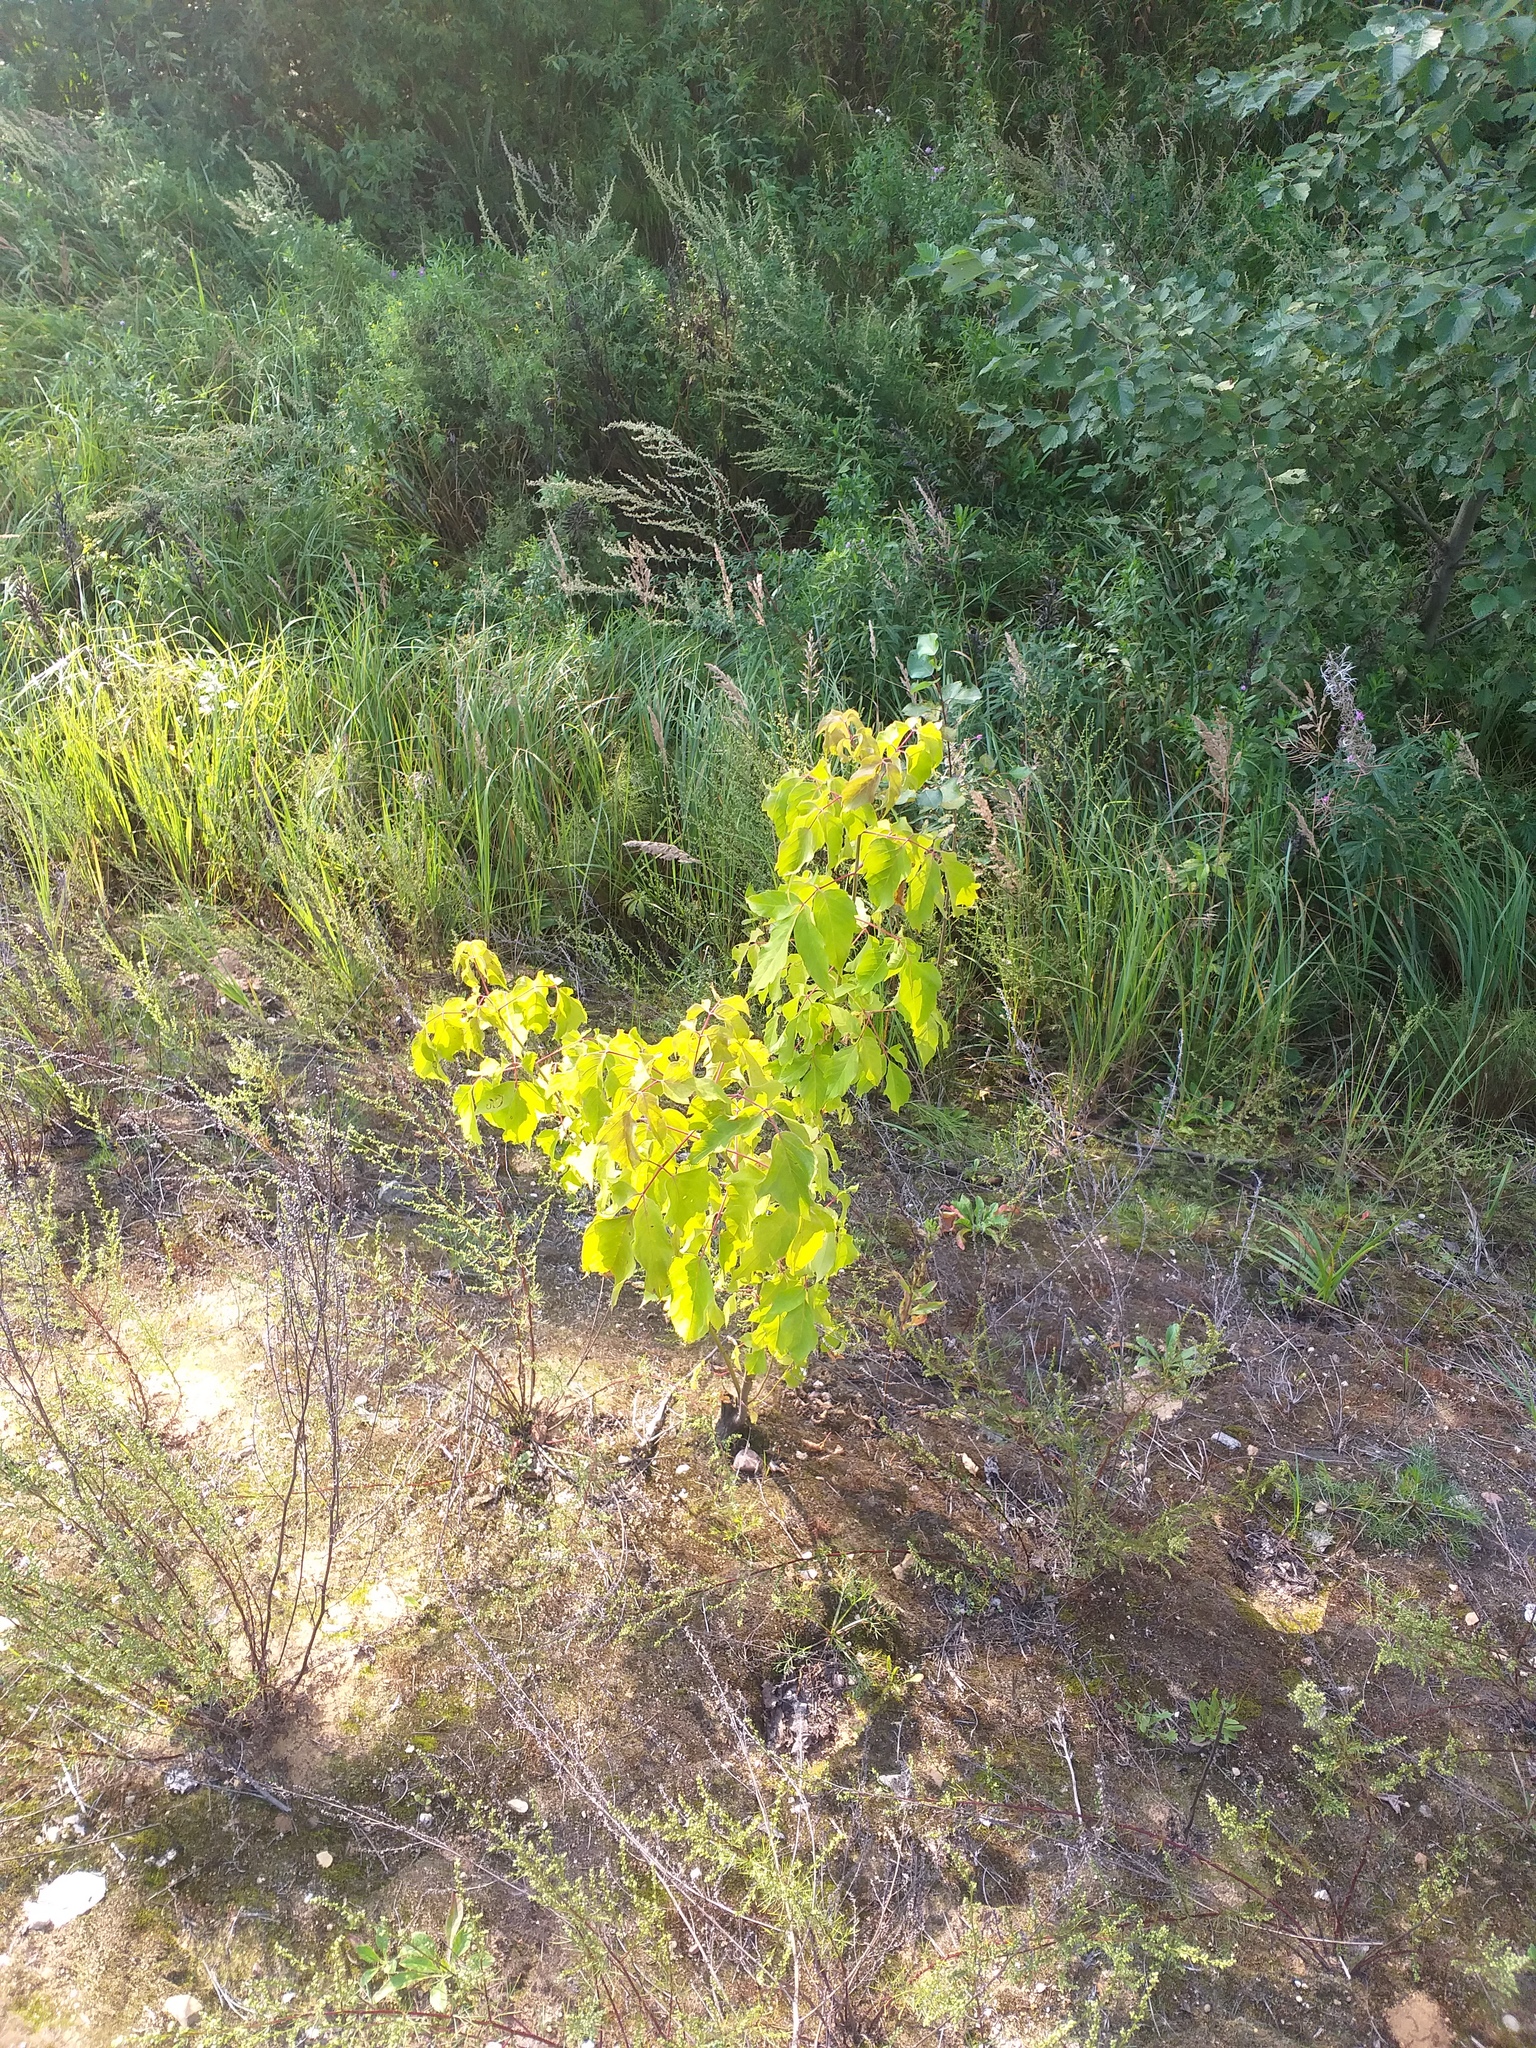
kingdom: Plantae
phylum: Tracheophyta
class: Magnoliopsida
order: Sapindales
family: Sapindaceae
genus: Acer
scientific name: Acer negundo
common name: Ashleaf maple
